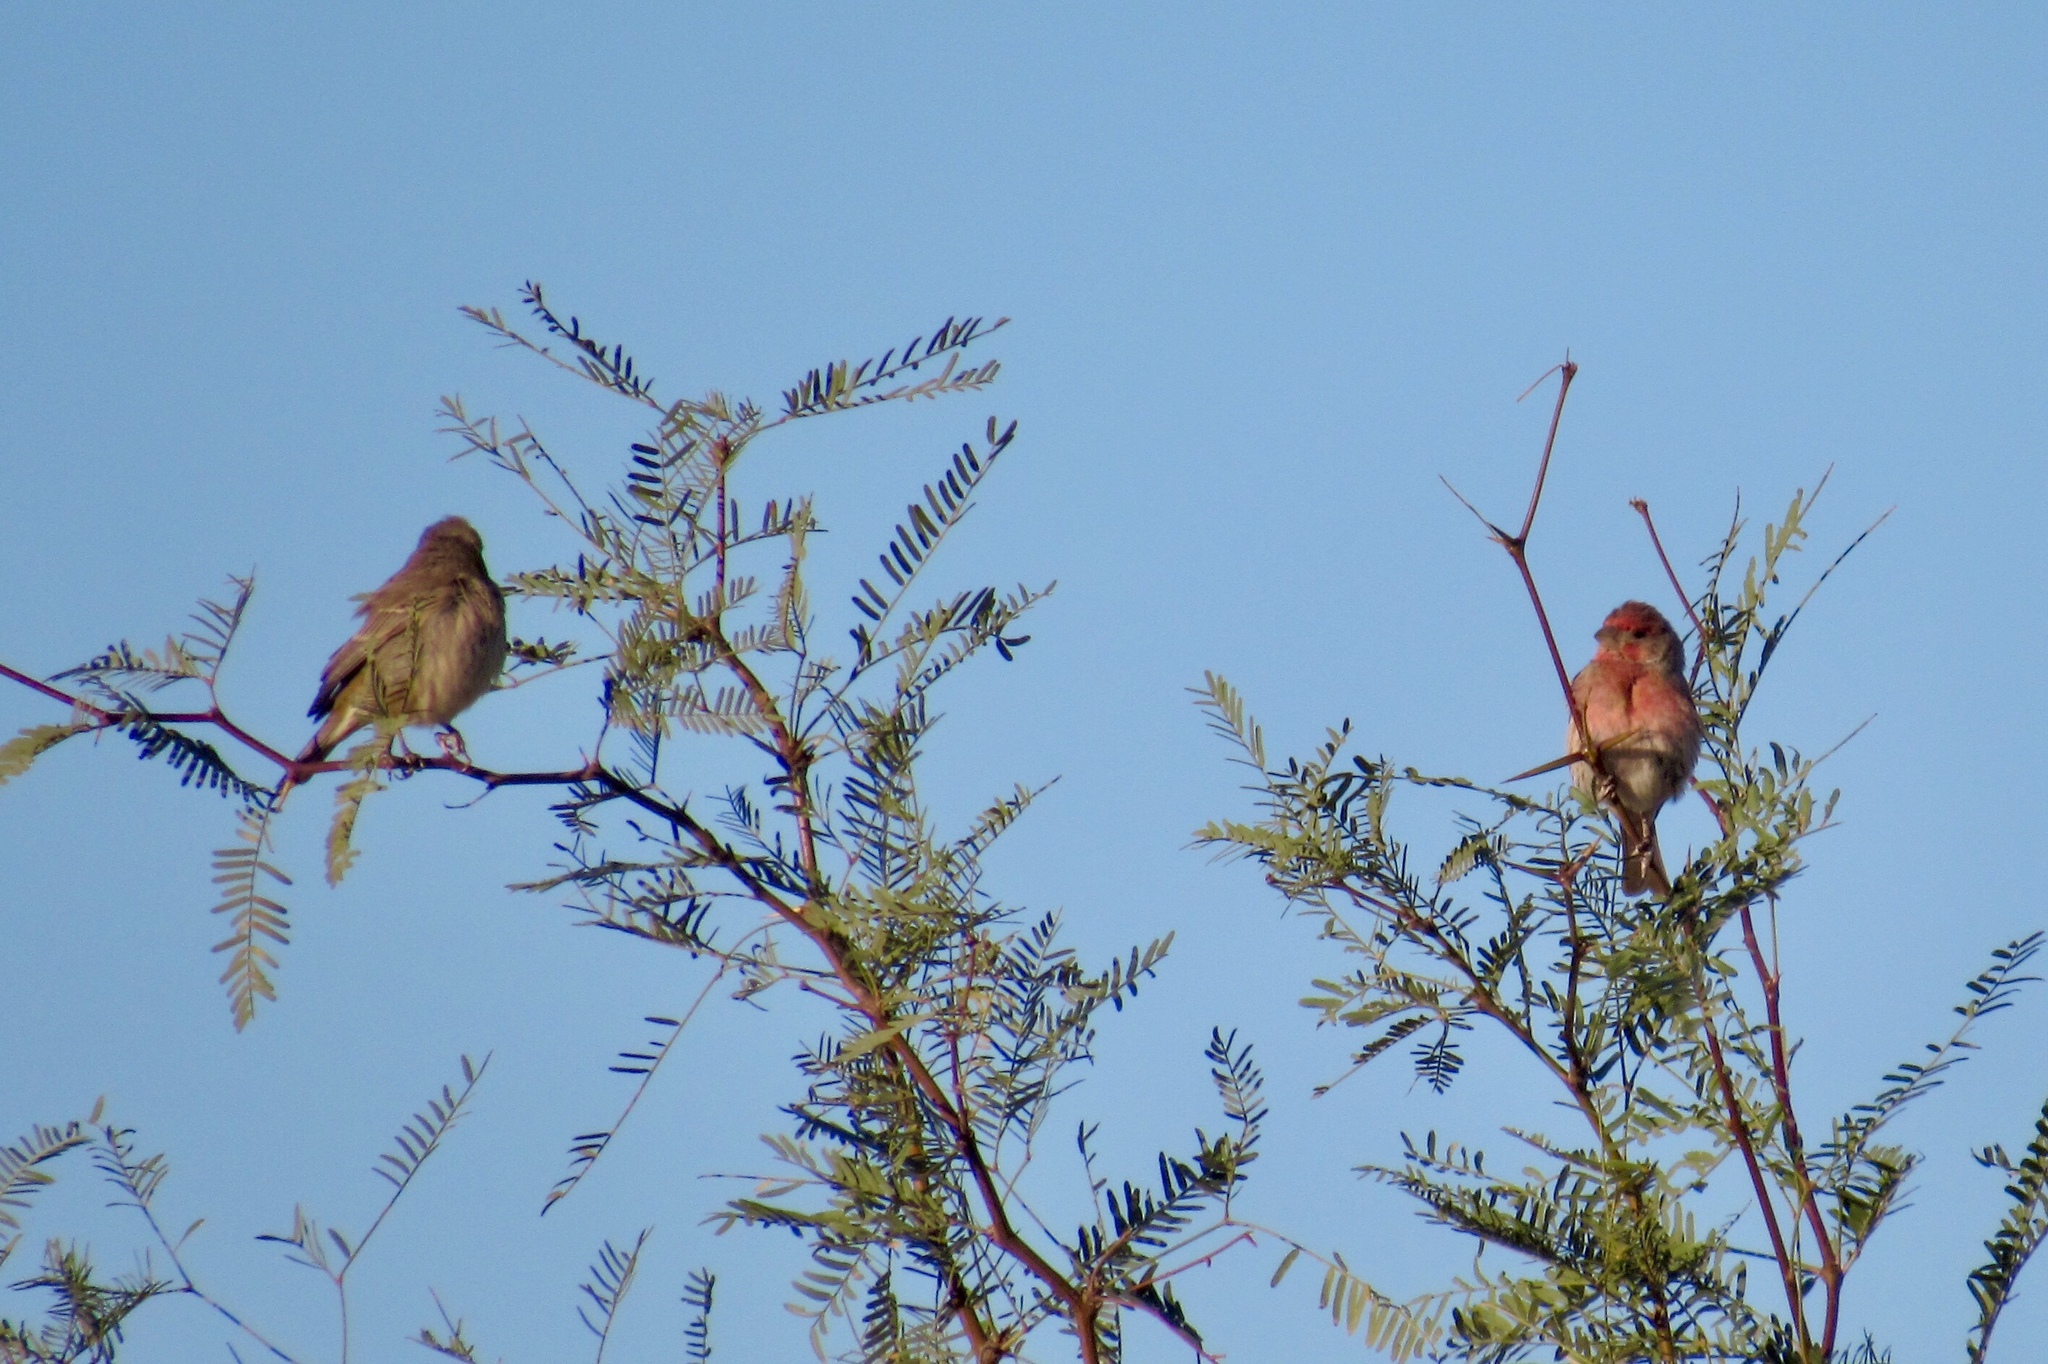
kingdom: Animalia
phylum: Chordata
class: Aves
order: Passeriformes
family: Fringillidae
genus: Haemorhous
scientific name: Haemorhous mexicanus
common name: House finch
